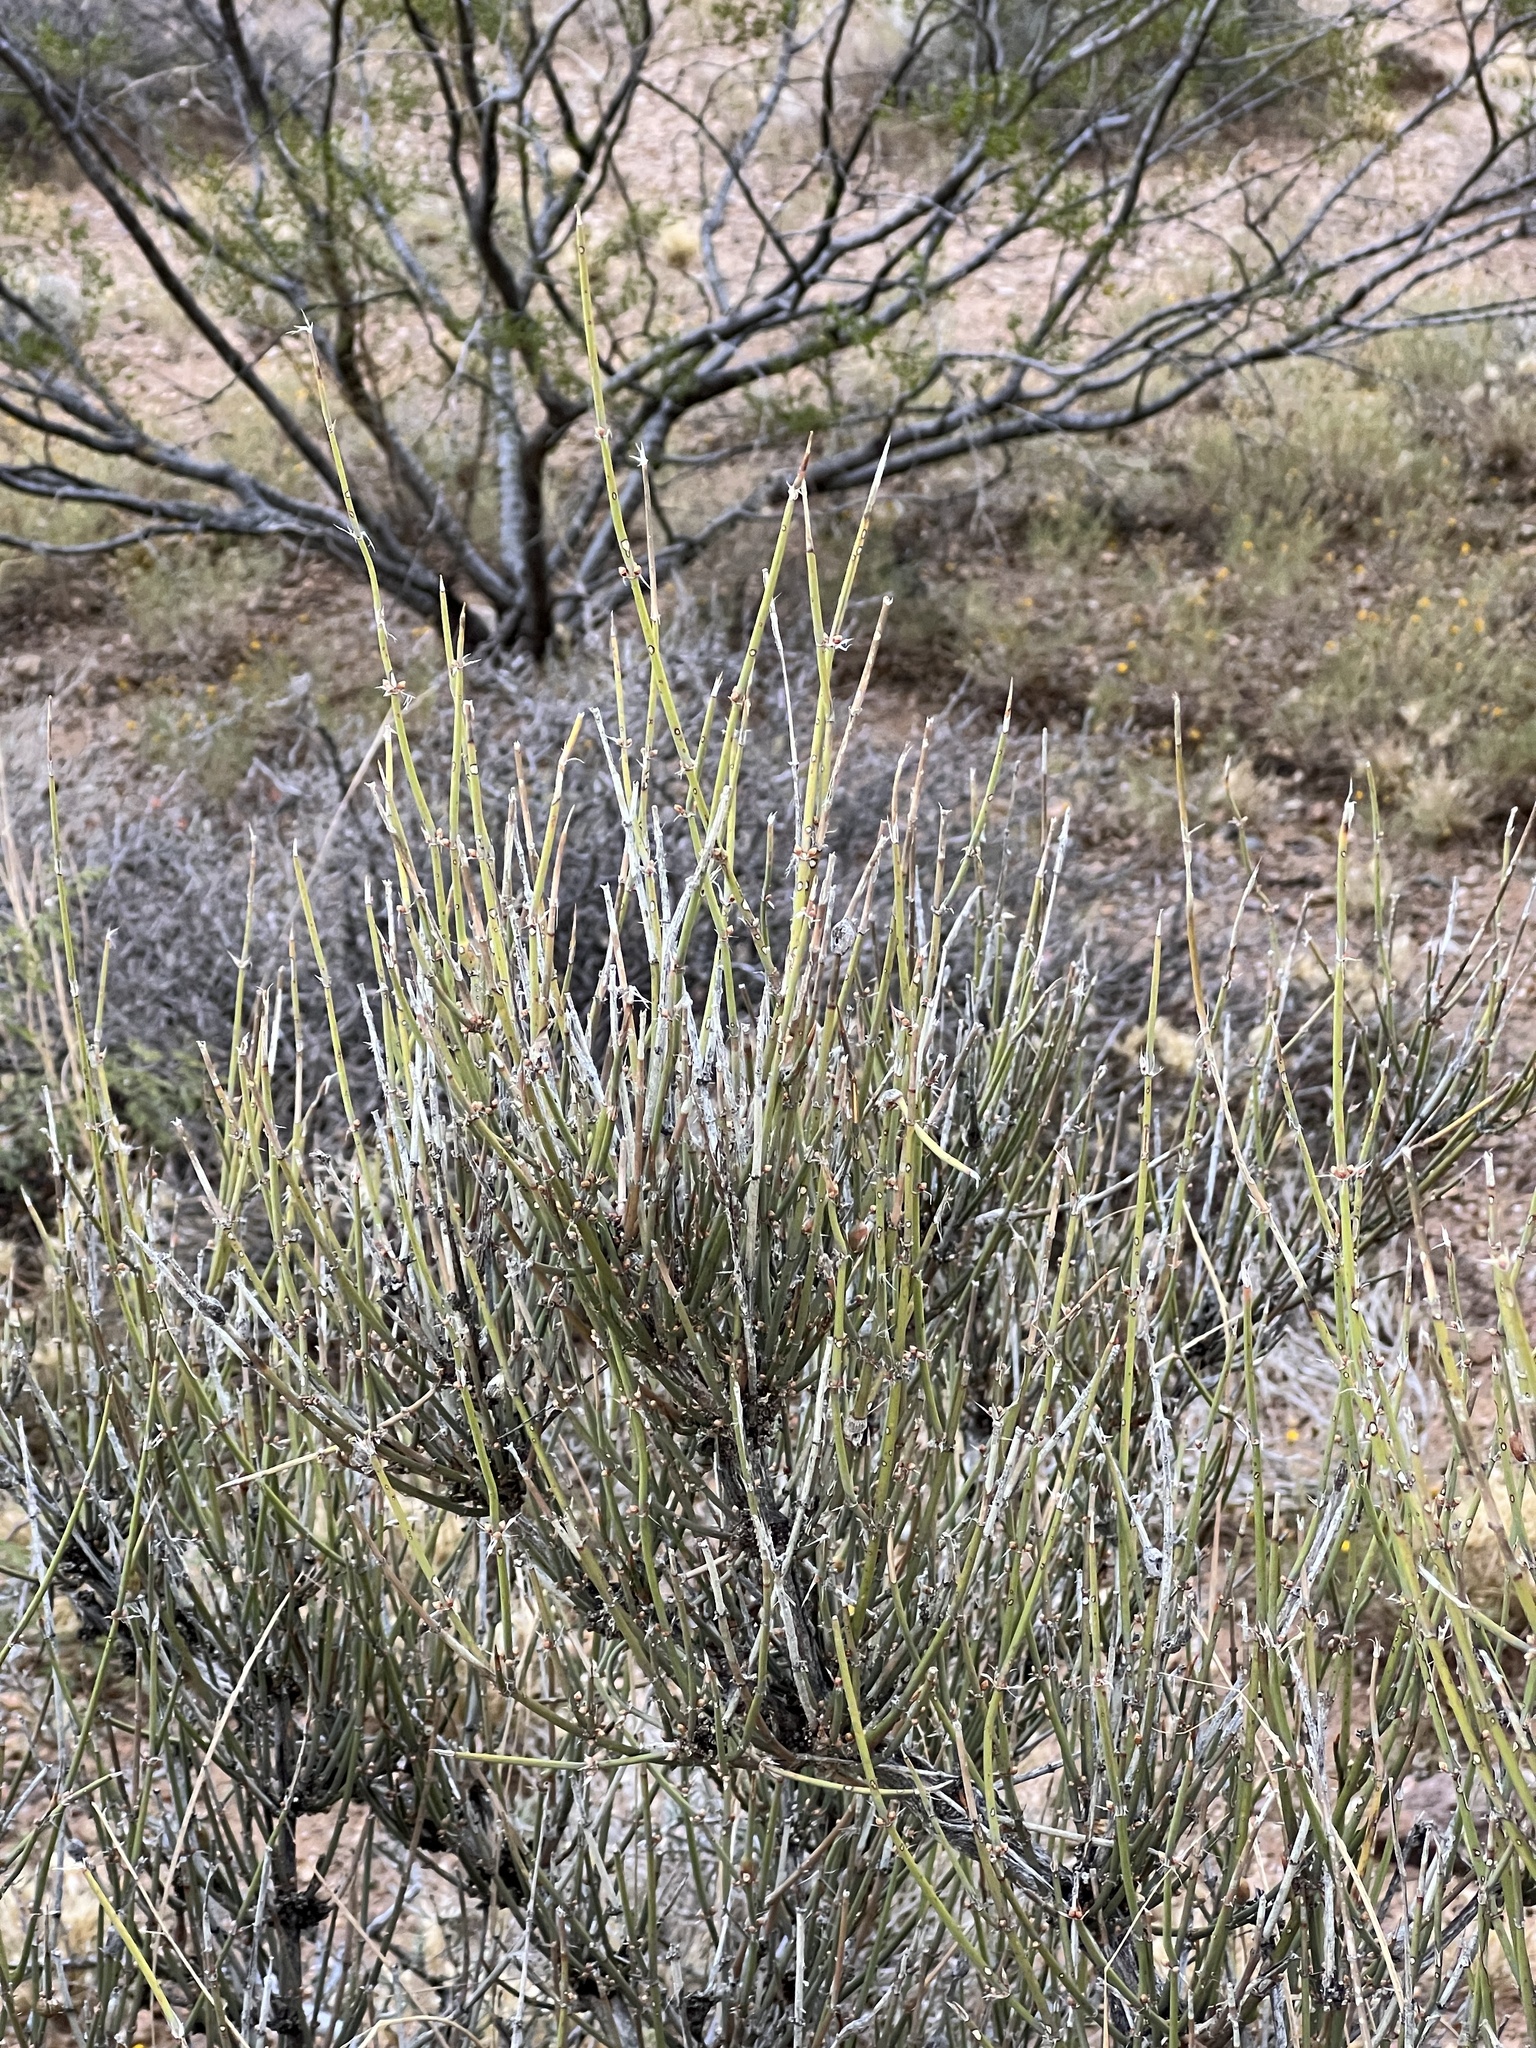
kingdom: Plantae
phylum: Tracheophyta
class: Gnetopsida
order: Ephedrales
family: Ephedraceae
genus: Ephedra
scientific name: Ephedra trifurca
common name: Mexican-tea
